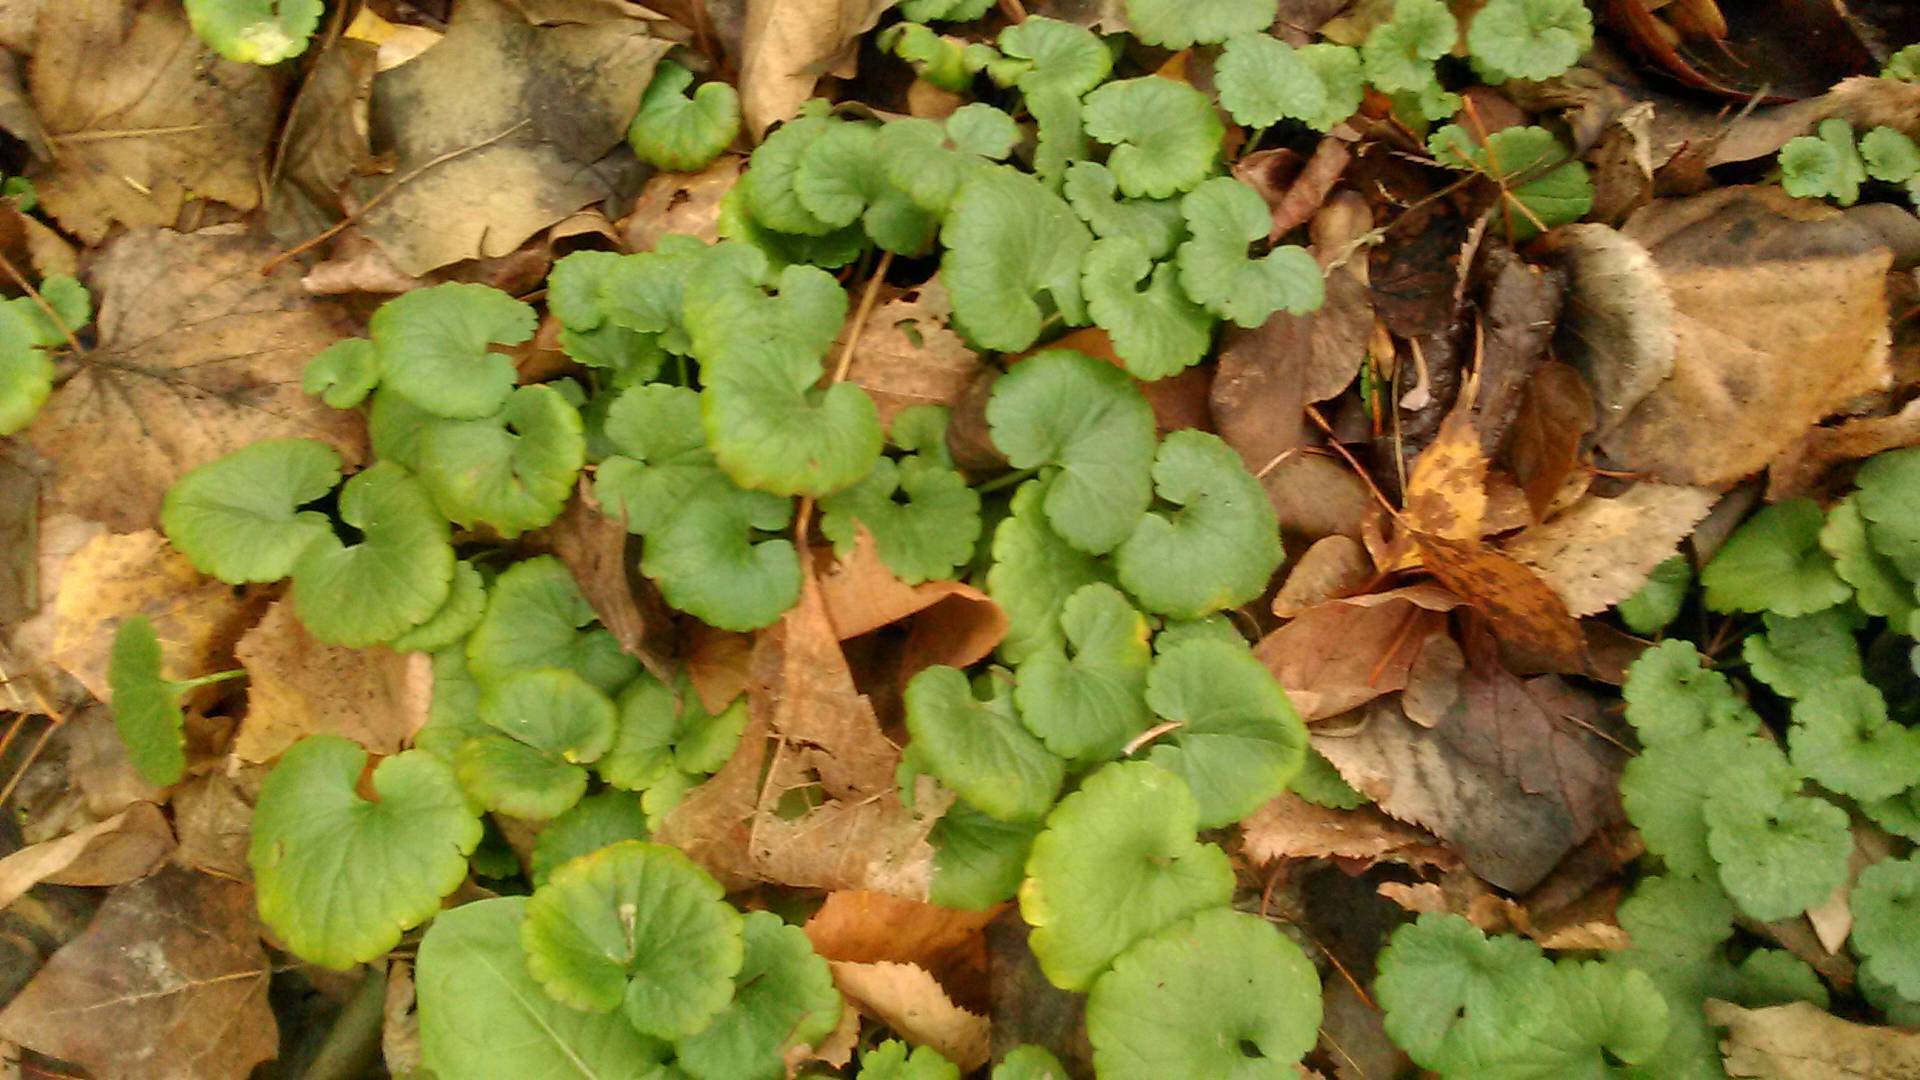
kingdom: Plantae
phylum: Tracheophyta
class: Magnoliopsida
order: Lamiales
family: Lamiaceae
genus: Glechoma
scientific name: Glechoma hederacea
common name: Ground ivy
